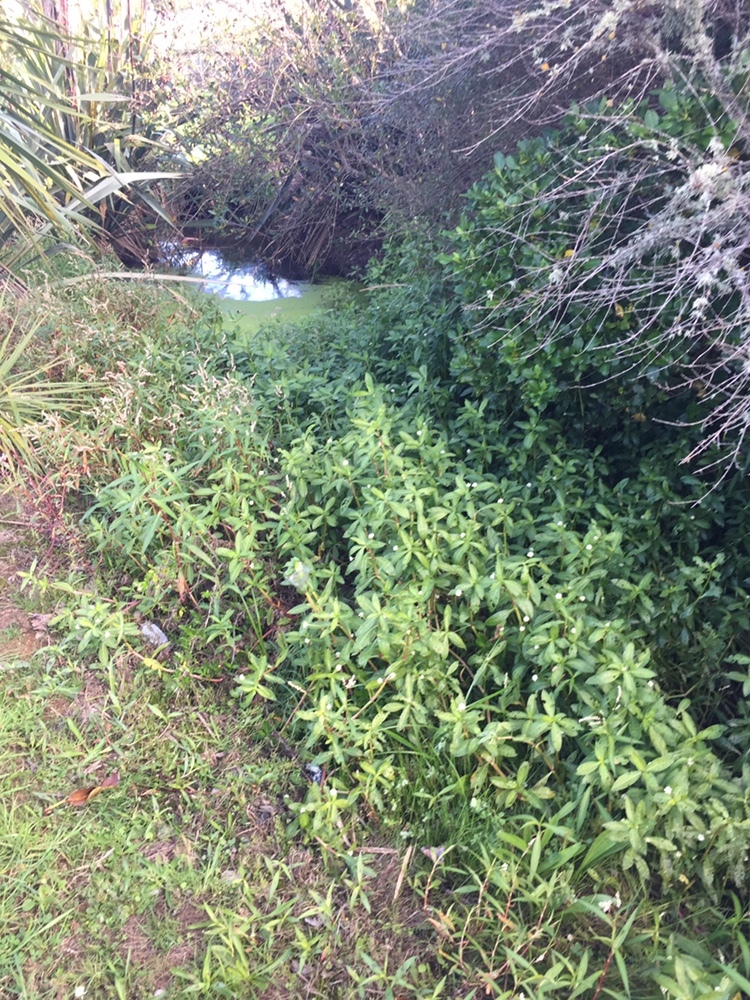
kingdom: Plantae
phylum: Tracheophyta
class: Magnoliopsida
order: Caryophyllales
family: Amaranthaceae
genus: Alternanthera
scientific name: Alternanthera philoxeroides
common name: Alligatorweed
